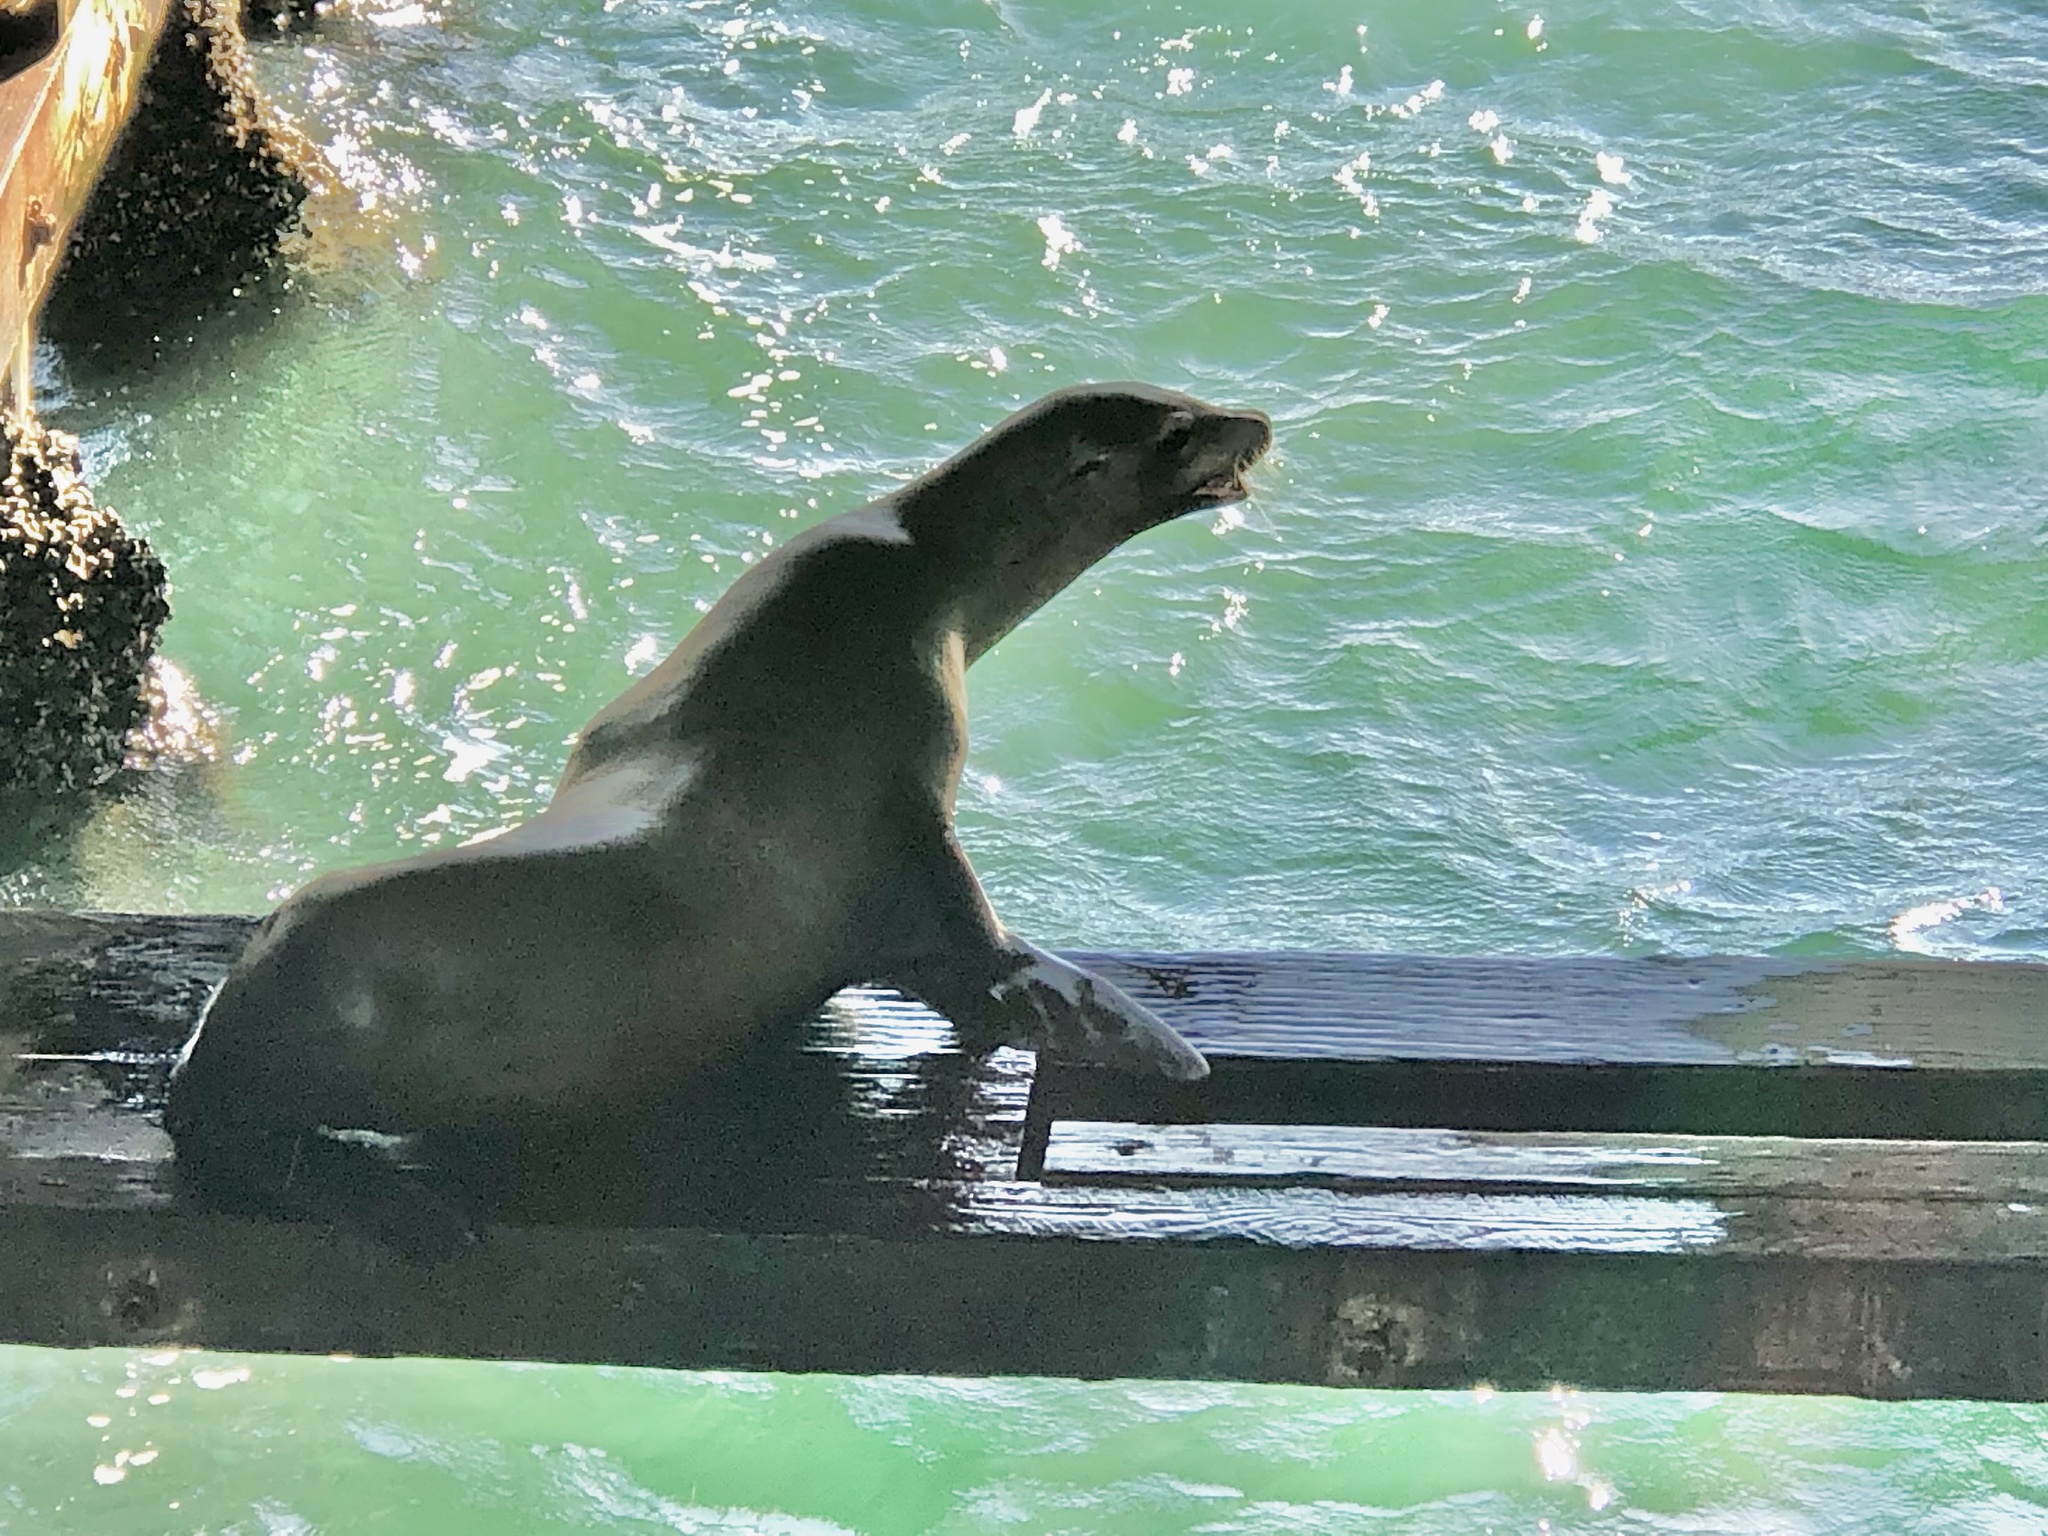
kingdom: Animalia
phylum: Chordata
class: Mammalia
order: Carnivora
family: Otariidae
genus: Zalophus
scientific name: Zalophus californianus
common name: California sea lion
